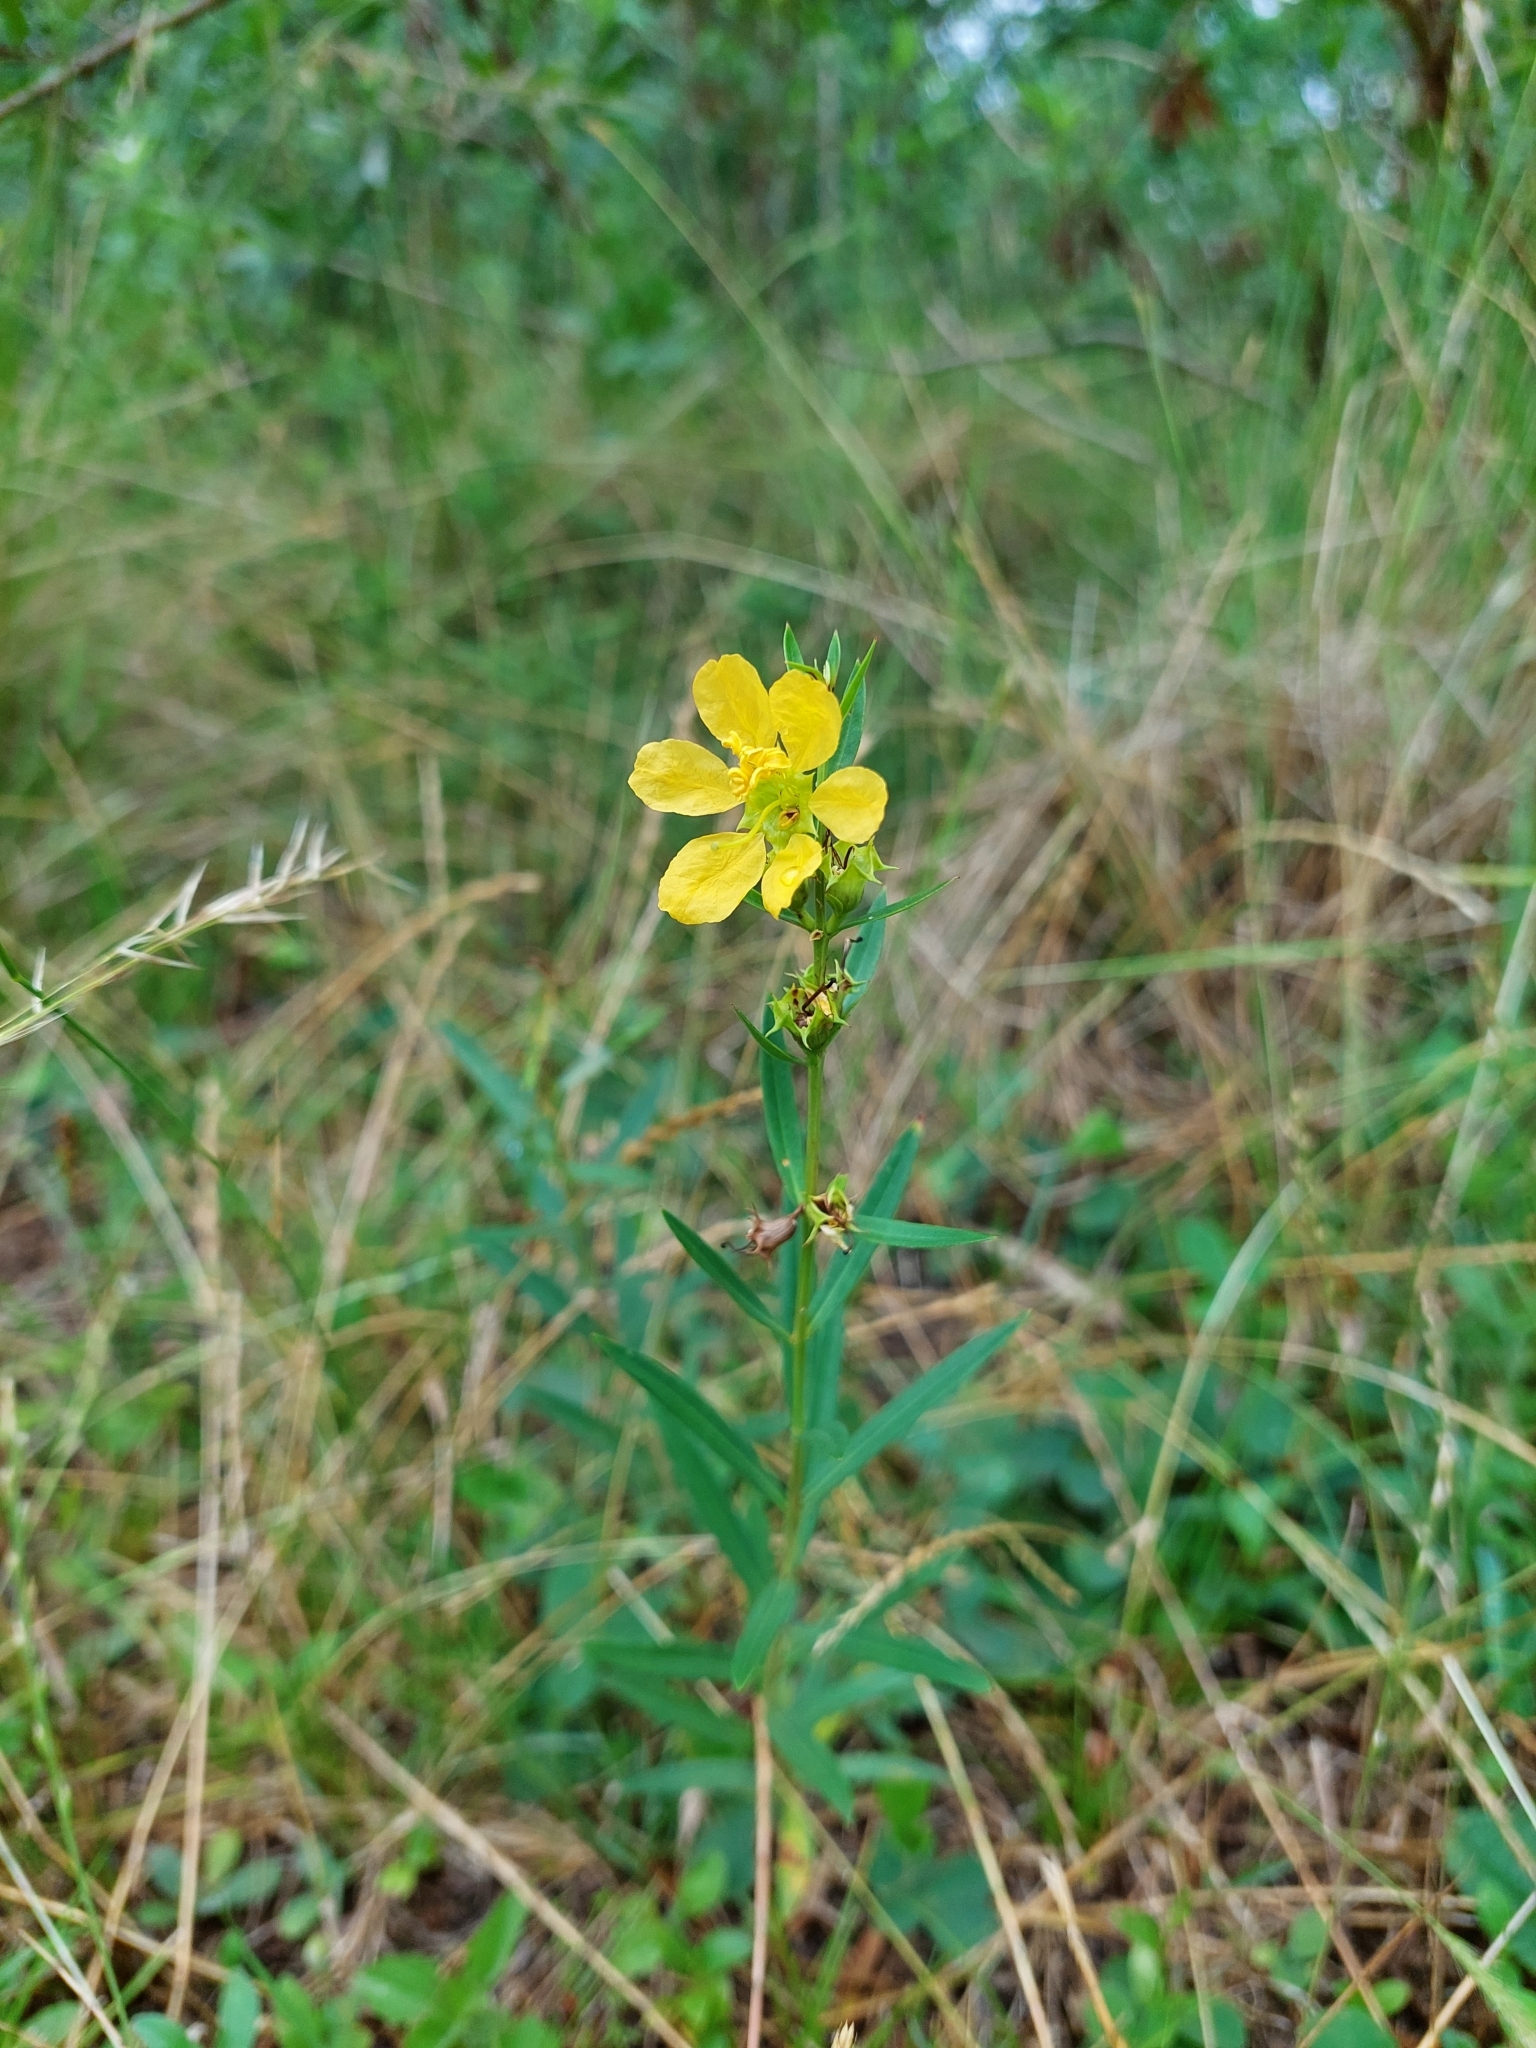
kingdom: Plantae
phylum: Tracheophyta
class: Magnoliopsida
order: Myrtales
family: Lythraceae
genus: Heimia
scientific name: Heimia salicifolia
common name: Willow-leaf heimia
